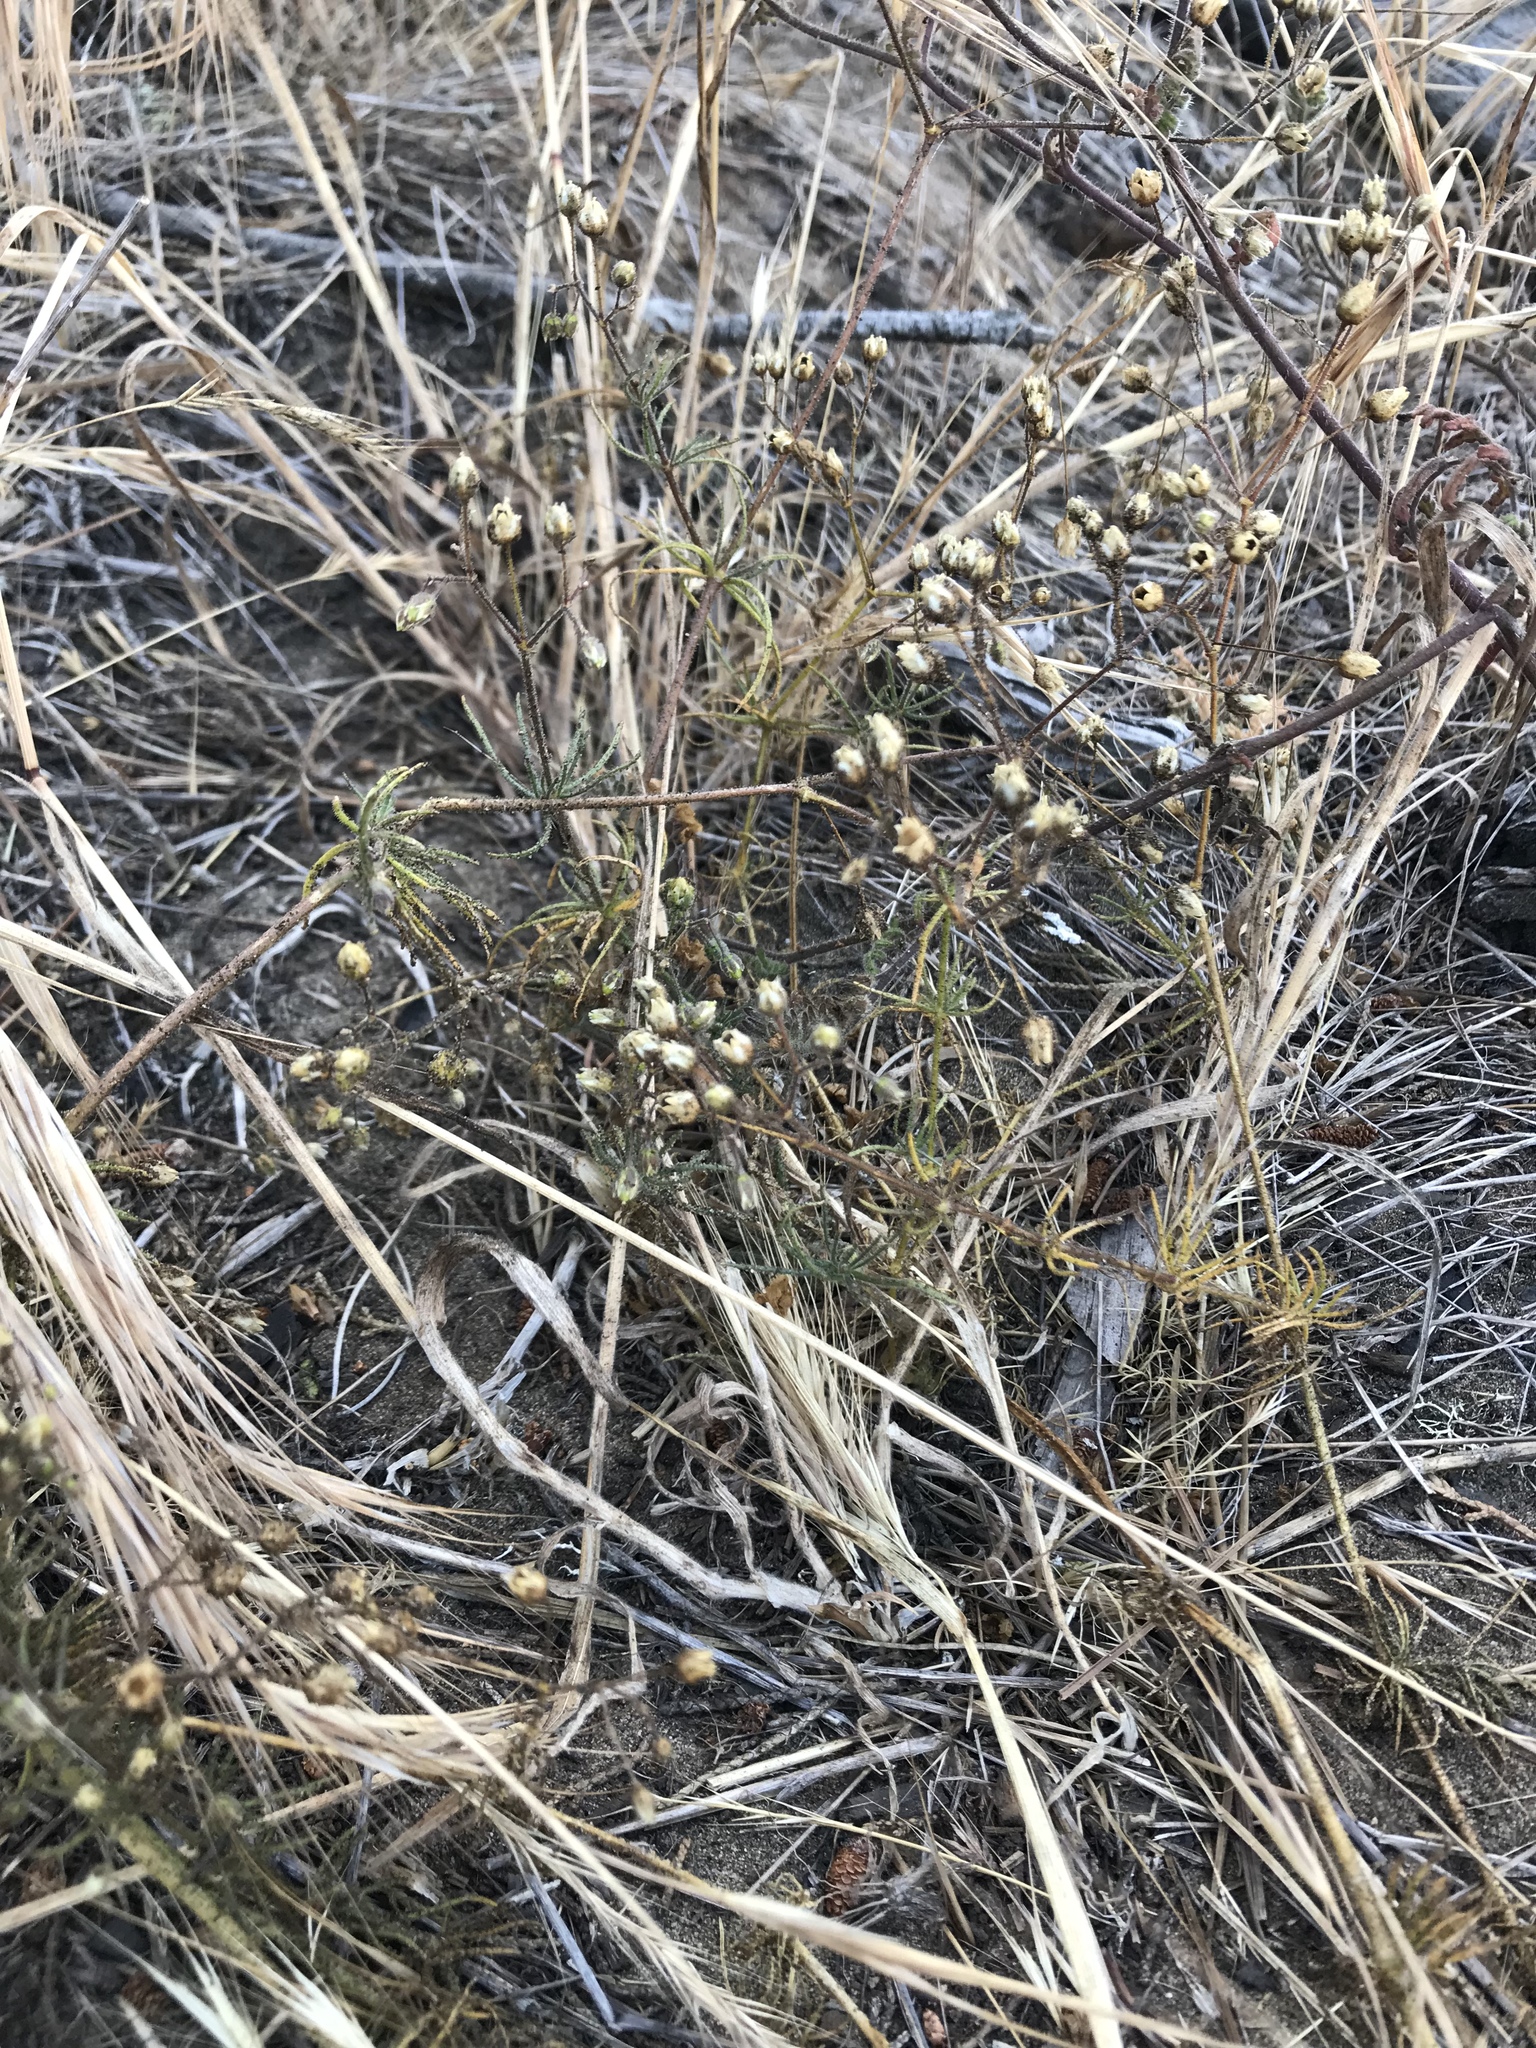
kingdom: Plantae
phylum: Tracheophyta
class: Magnoliopsida
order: Caryophyllales
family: Caryophyllaceae
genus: Spergula
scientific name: Spergula arvensis
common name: Corn spurrey
